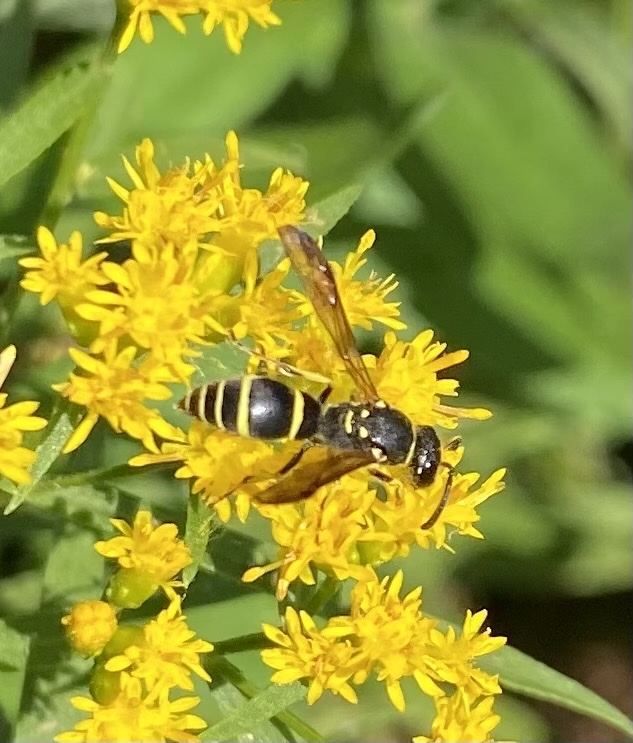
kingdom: Animalia
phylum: Arthropoda
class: Insecta
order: Hymenoptera
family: Vespidae
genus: Ancistrocerus
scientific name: Ancistrocerus adiabatus
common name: Bramble mason wasp
